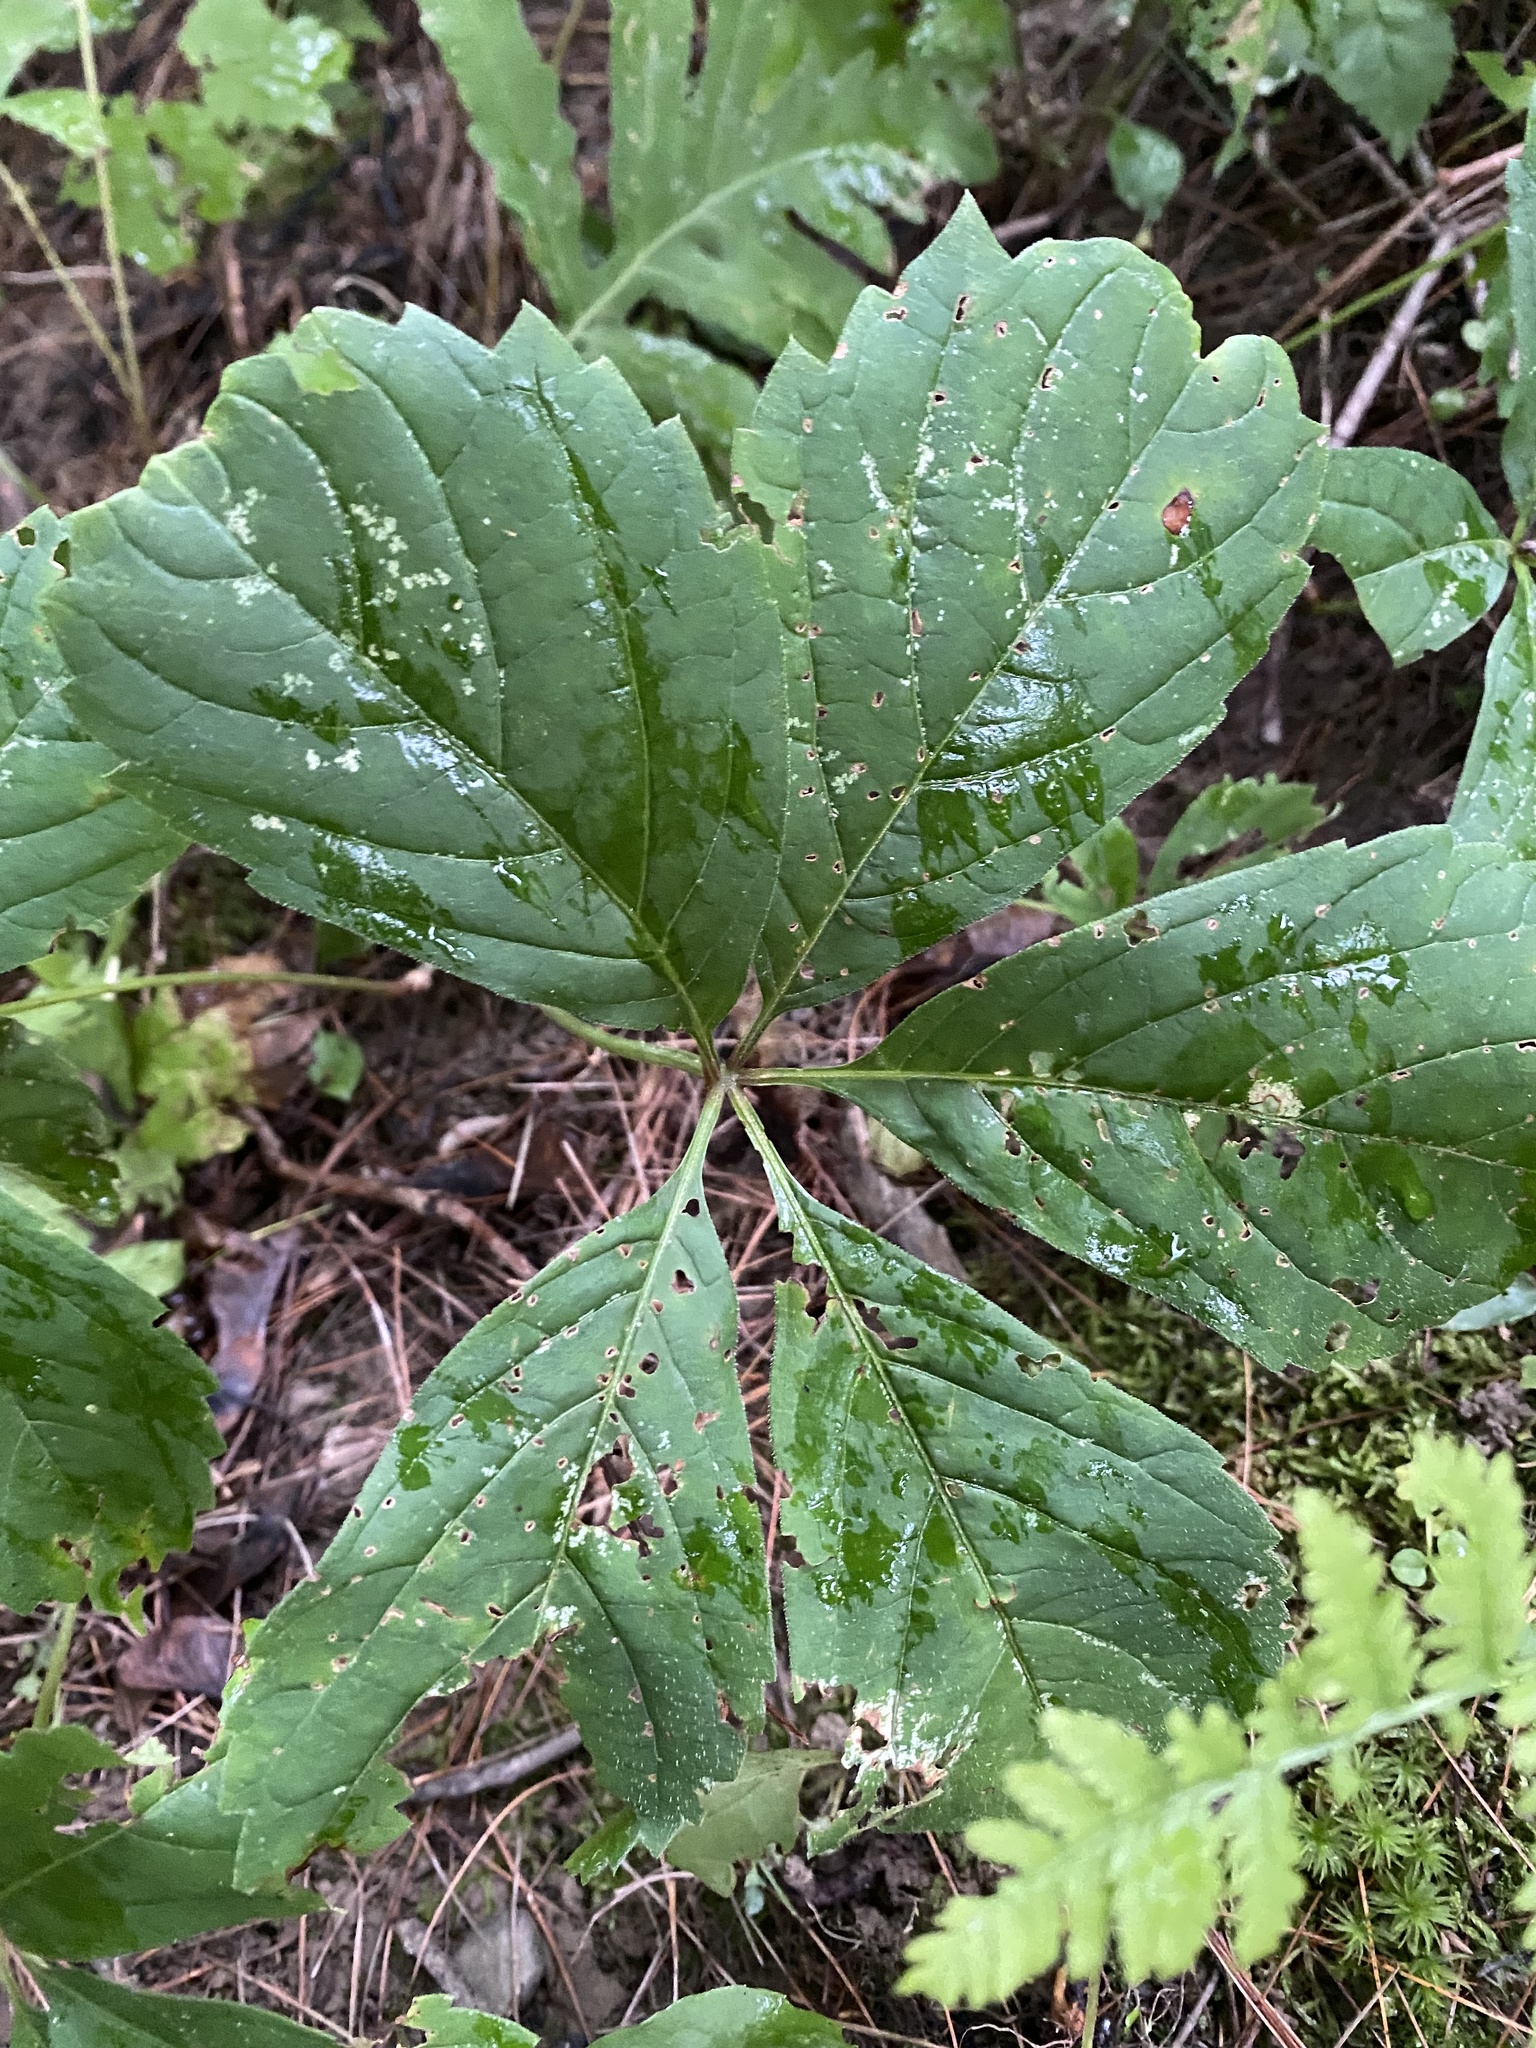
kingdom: Plantae
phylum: Tracheophyta
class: Magnoliopsida
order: Vitales
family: Vitaceae
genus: Parthenocissus
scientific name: Parthenocissus quinquefolia
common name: Virginia-creeper
